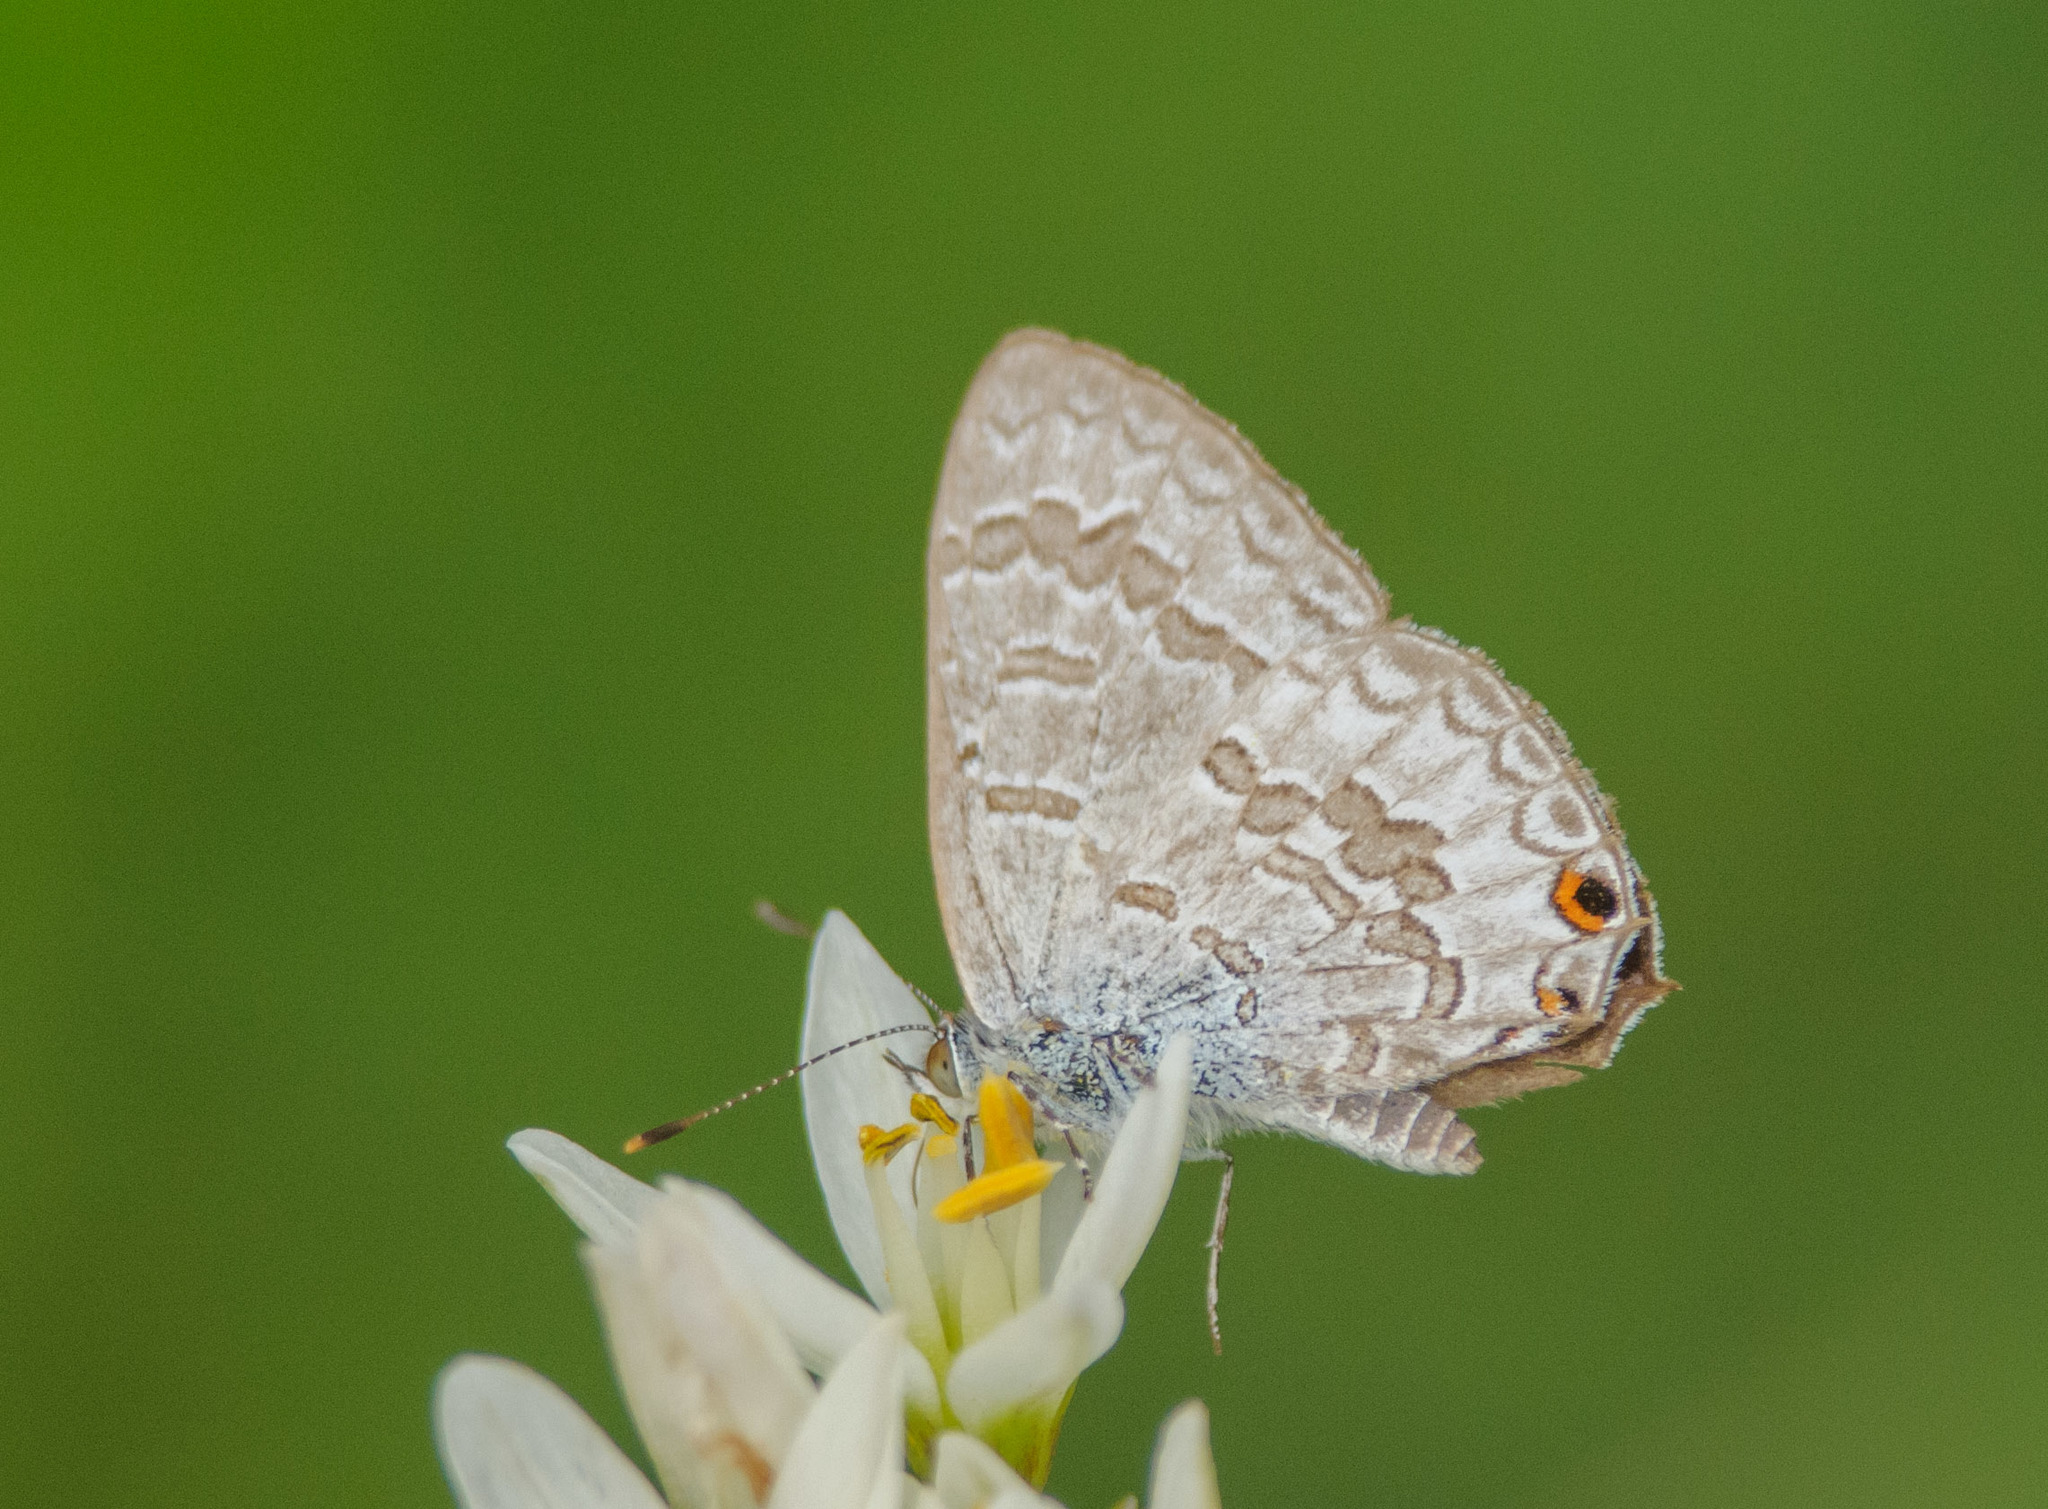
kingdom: Animalia
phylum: Arthropoda
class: Insecta
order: Lepidoptera
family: Lycaenidae
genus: Catopyrops
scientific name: Catopyrops florinda
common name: Speckled line-blue
